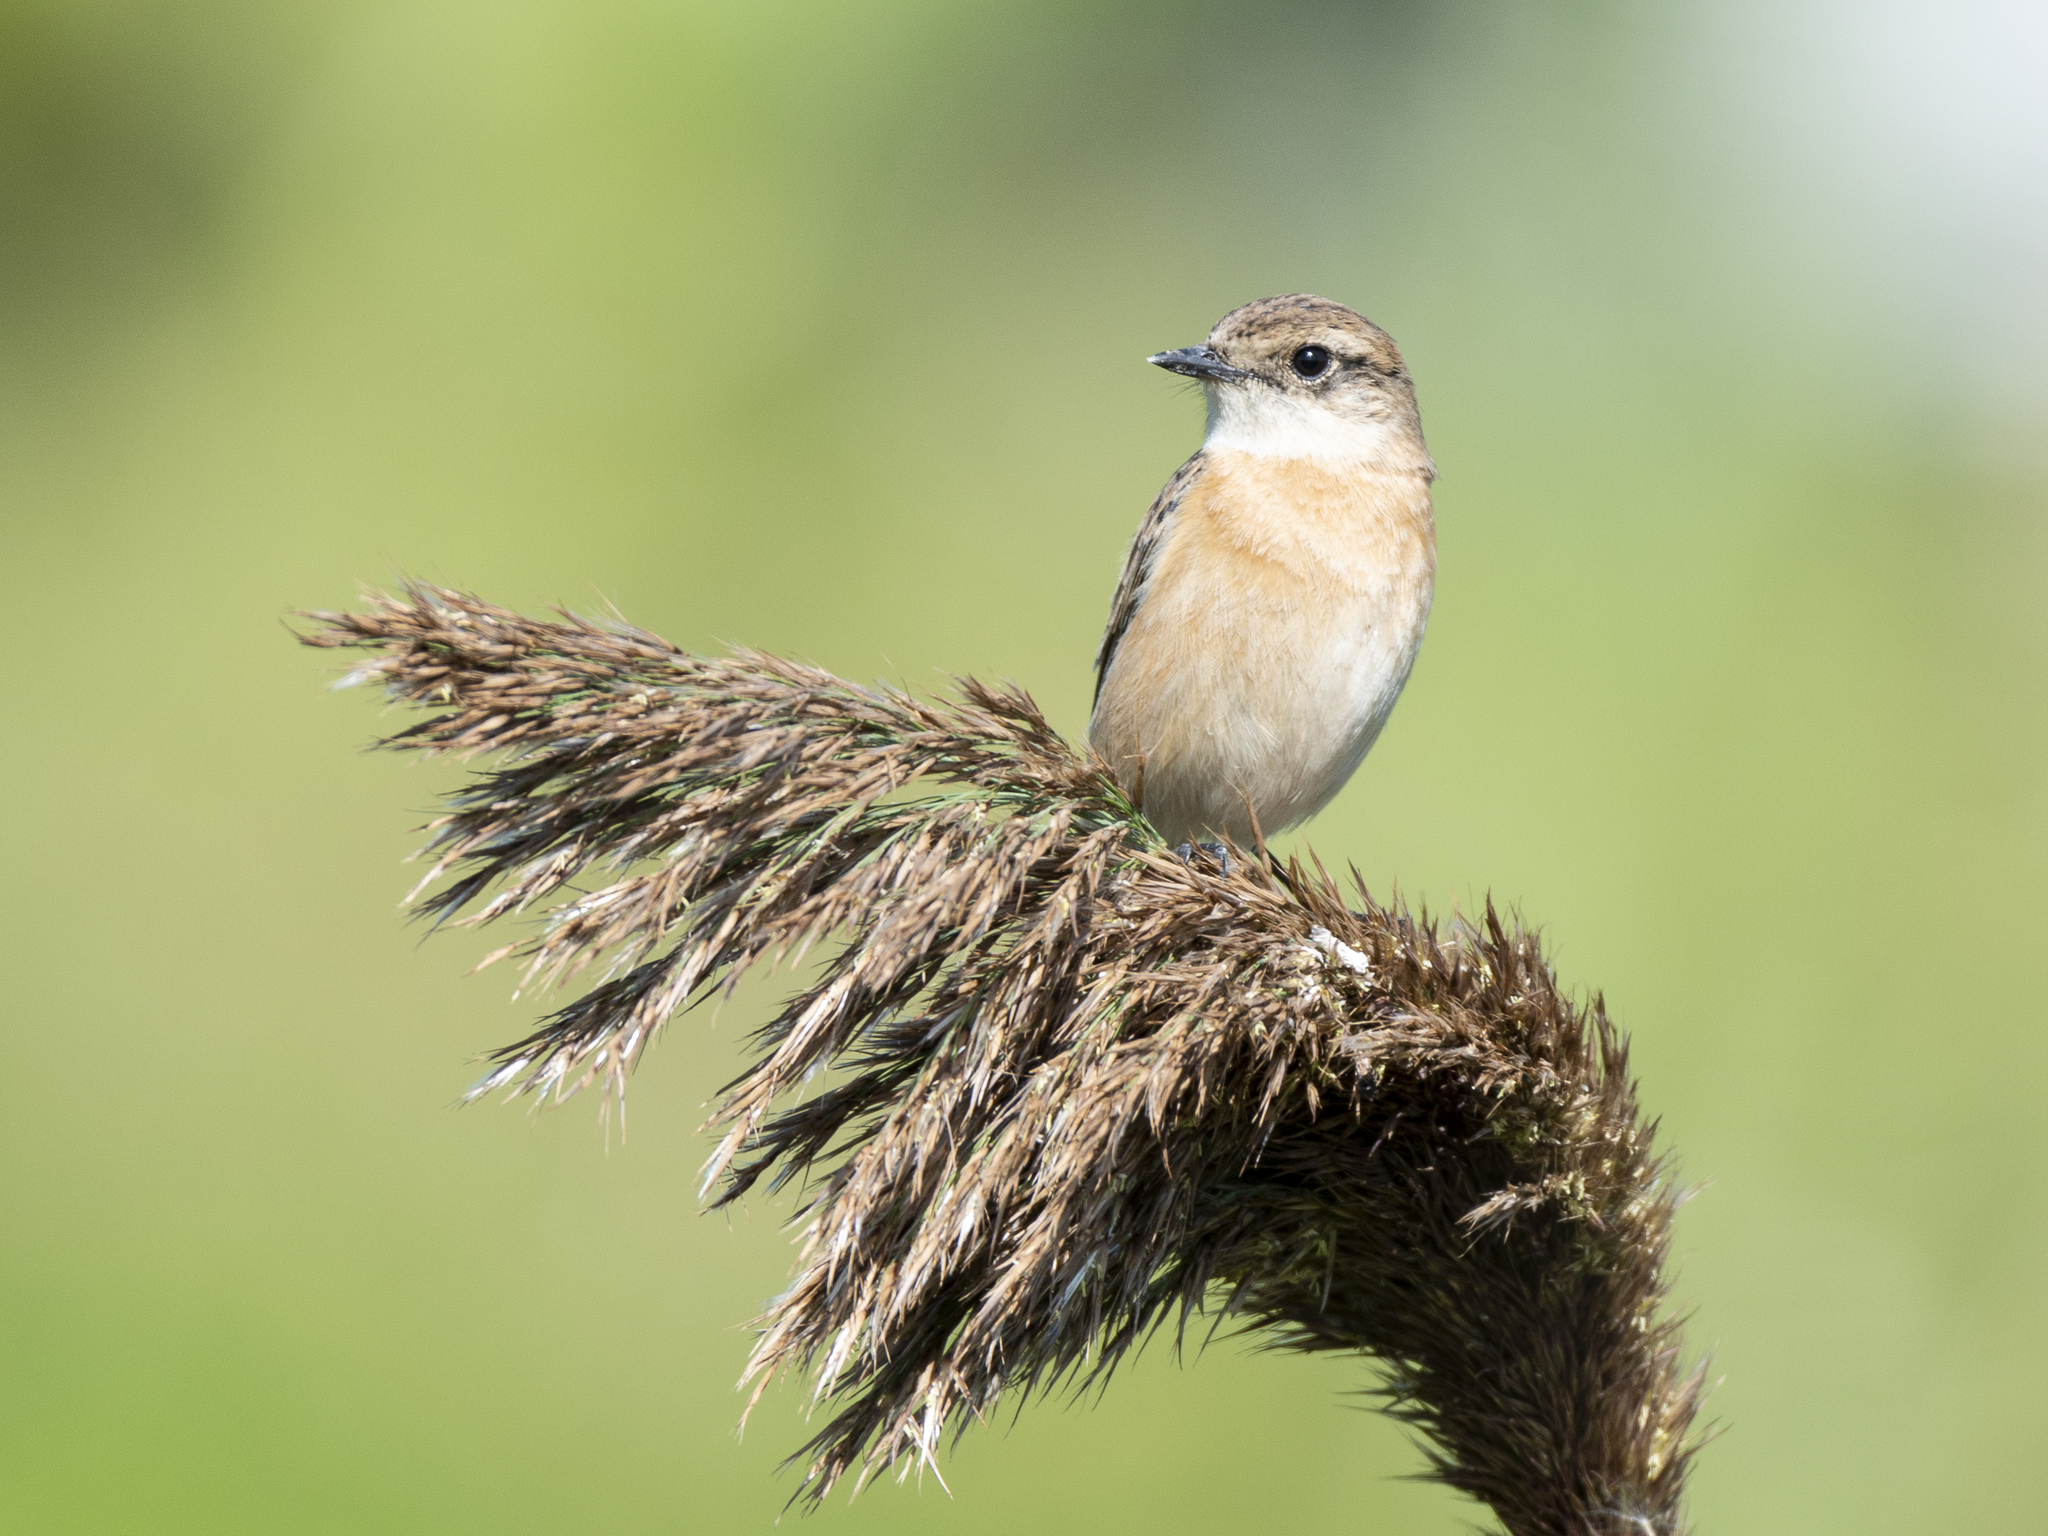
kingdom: Animalia
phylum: Chordata
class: Aves
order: Passeriformes
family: Muscicapidae
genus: Saxicola
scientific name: Saxicola stejnegeri
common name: Stejneger's stonechat
